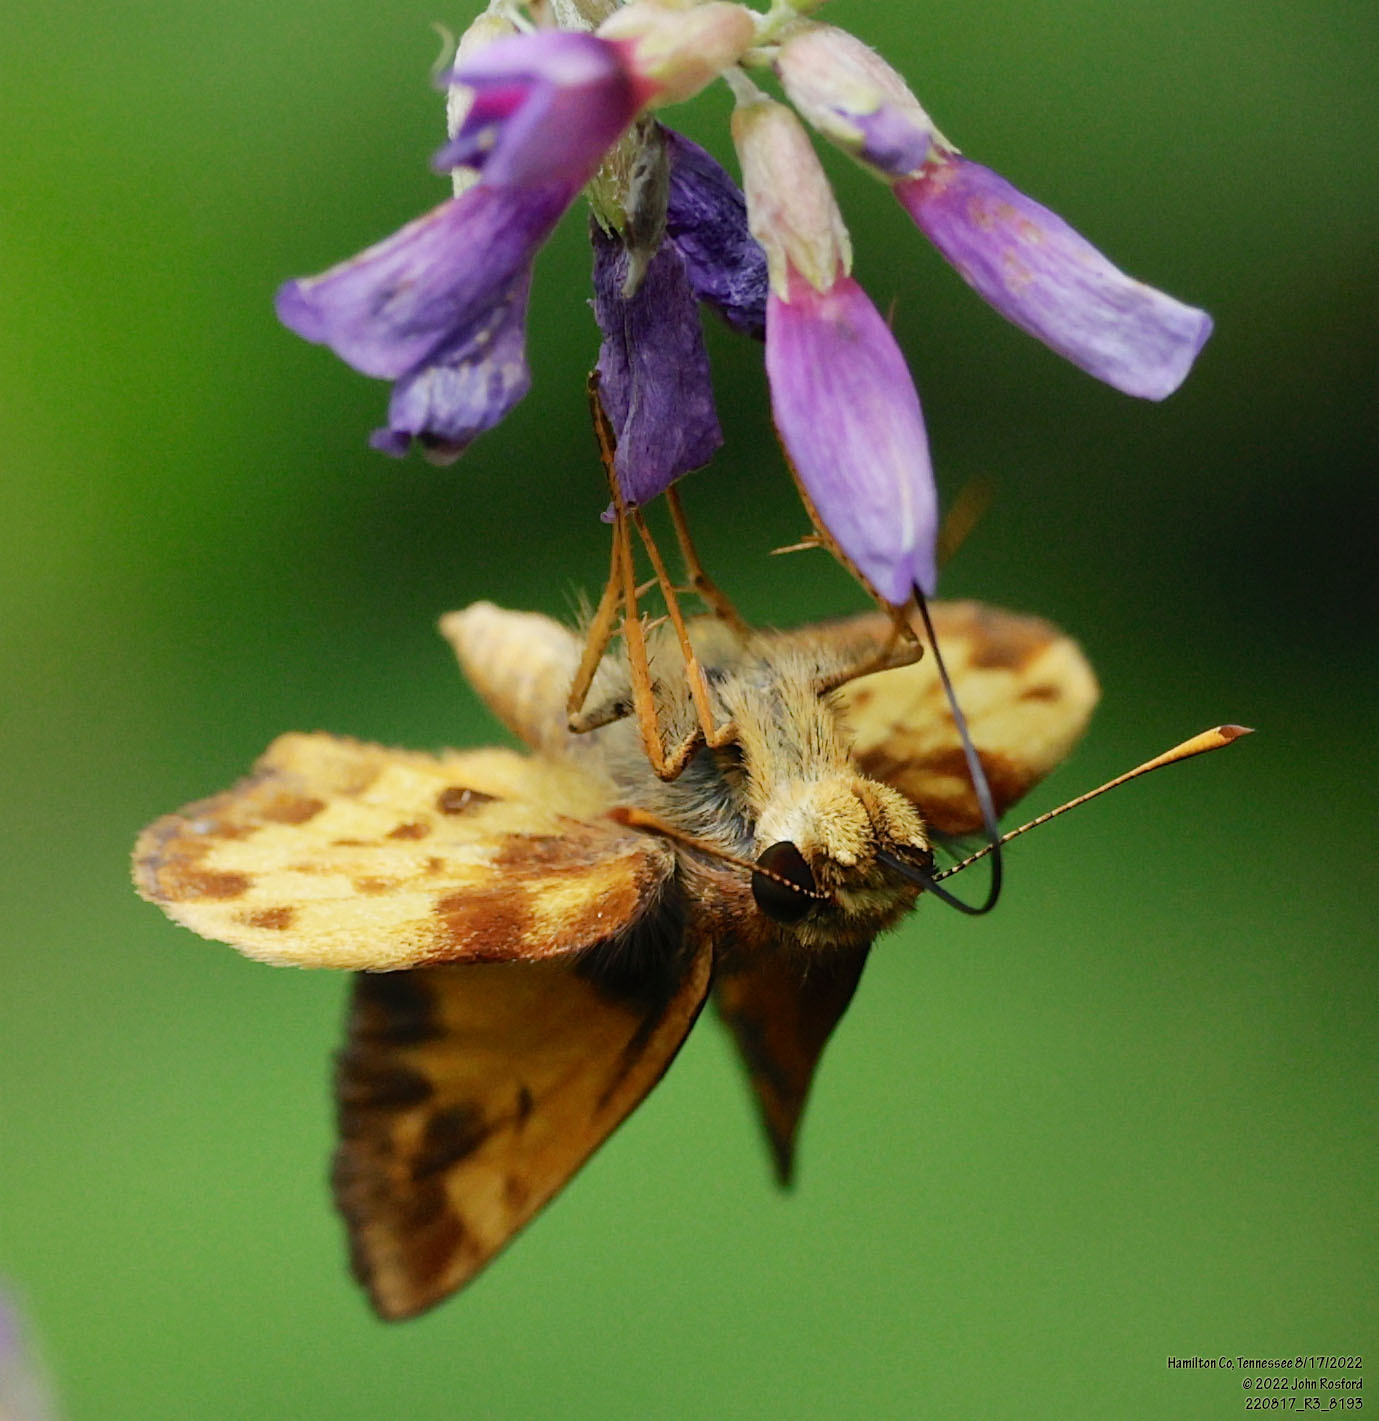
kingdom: Animalia
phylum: Arthropoda
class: Insecta
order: Lepidoptera
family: Hesperiidae
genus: Lon
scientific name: Lon zabulon
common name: Zabulon skipper
